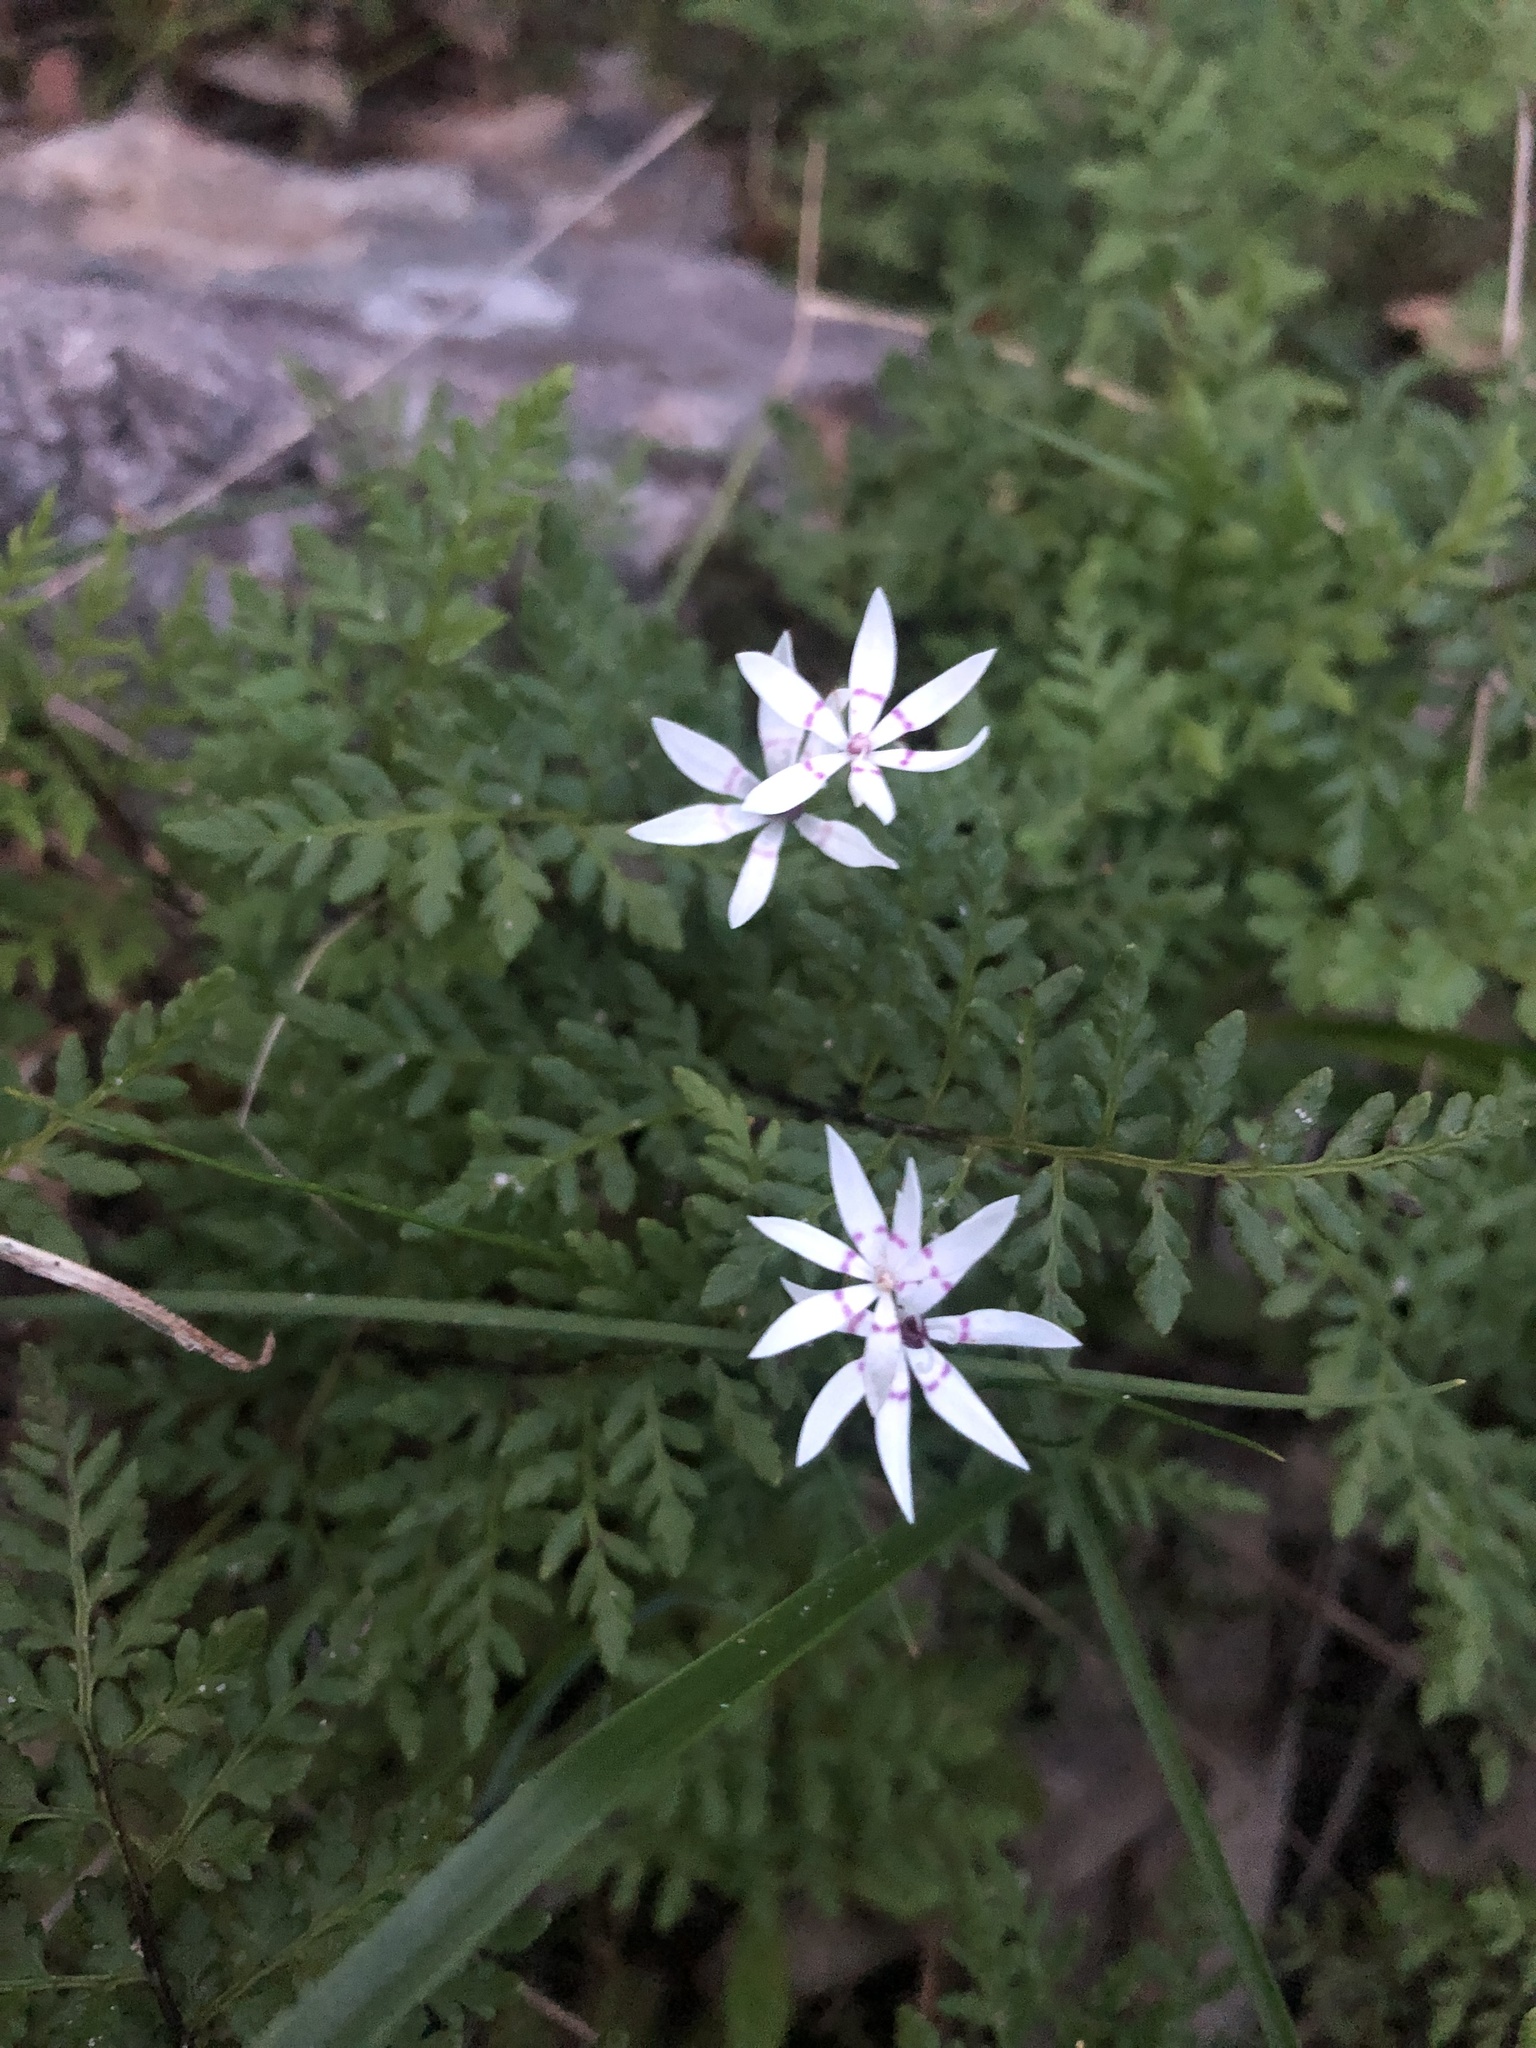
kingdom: Plantae
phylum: Tracheophyta
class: Liliopsida
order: Liliales
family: Colchicaceae
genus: Wurmbea
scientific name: Wurmbea dioica
